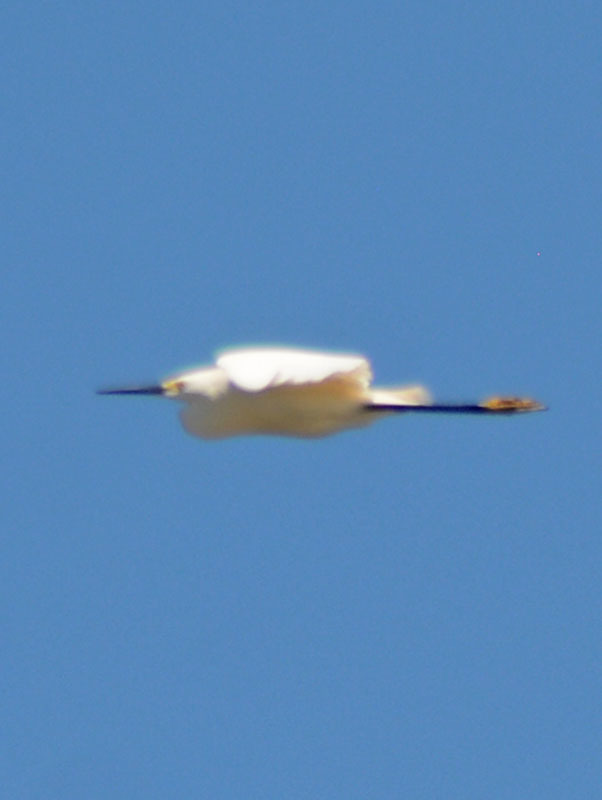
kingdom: Animalia
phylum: Chordata
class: Aves
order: Pelecaniformes
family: Ardeidae
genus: Egretta
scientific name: Egretta thula
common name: Snowy egret
